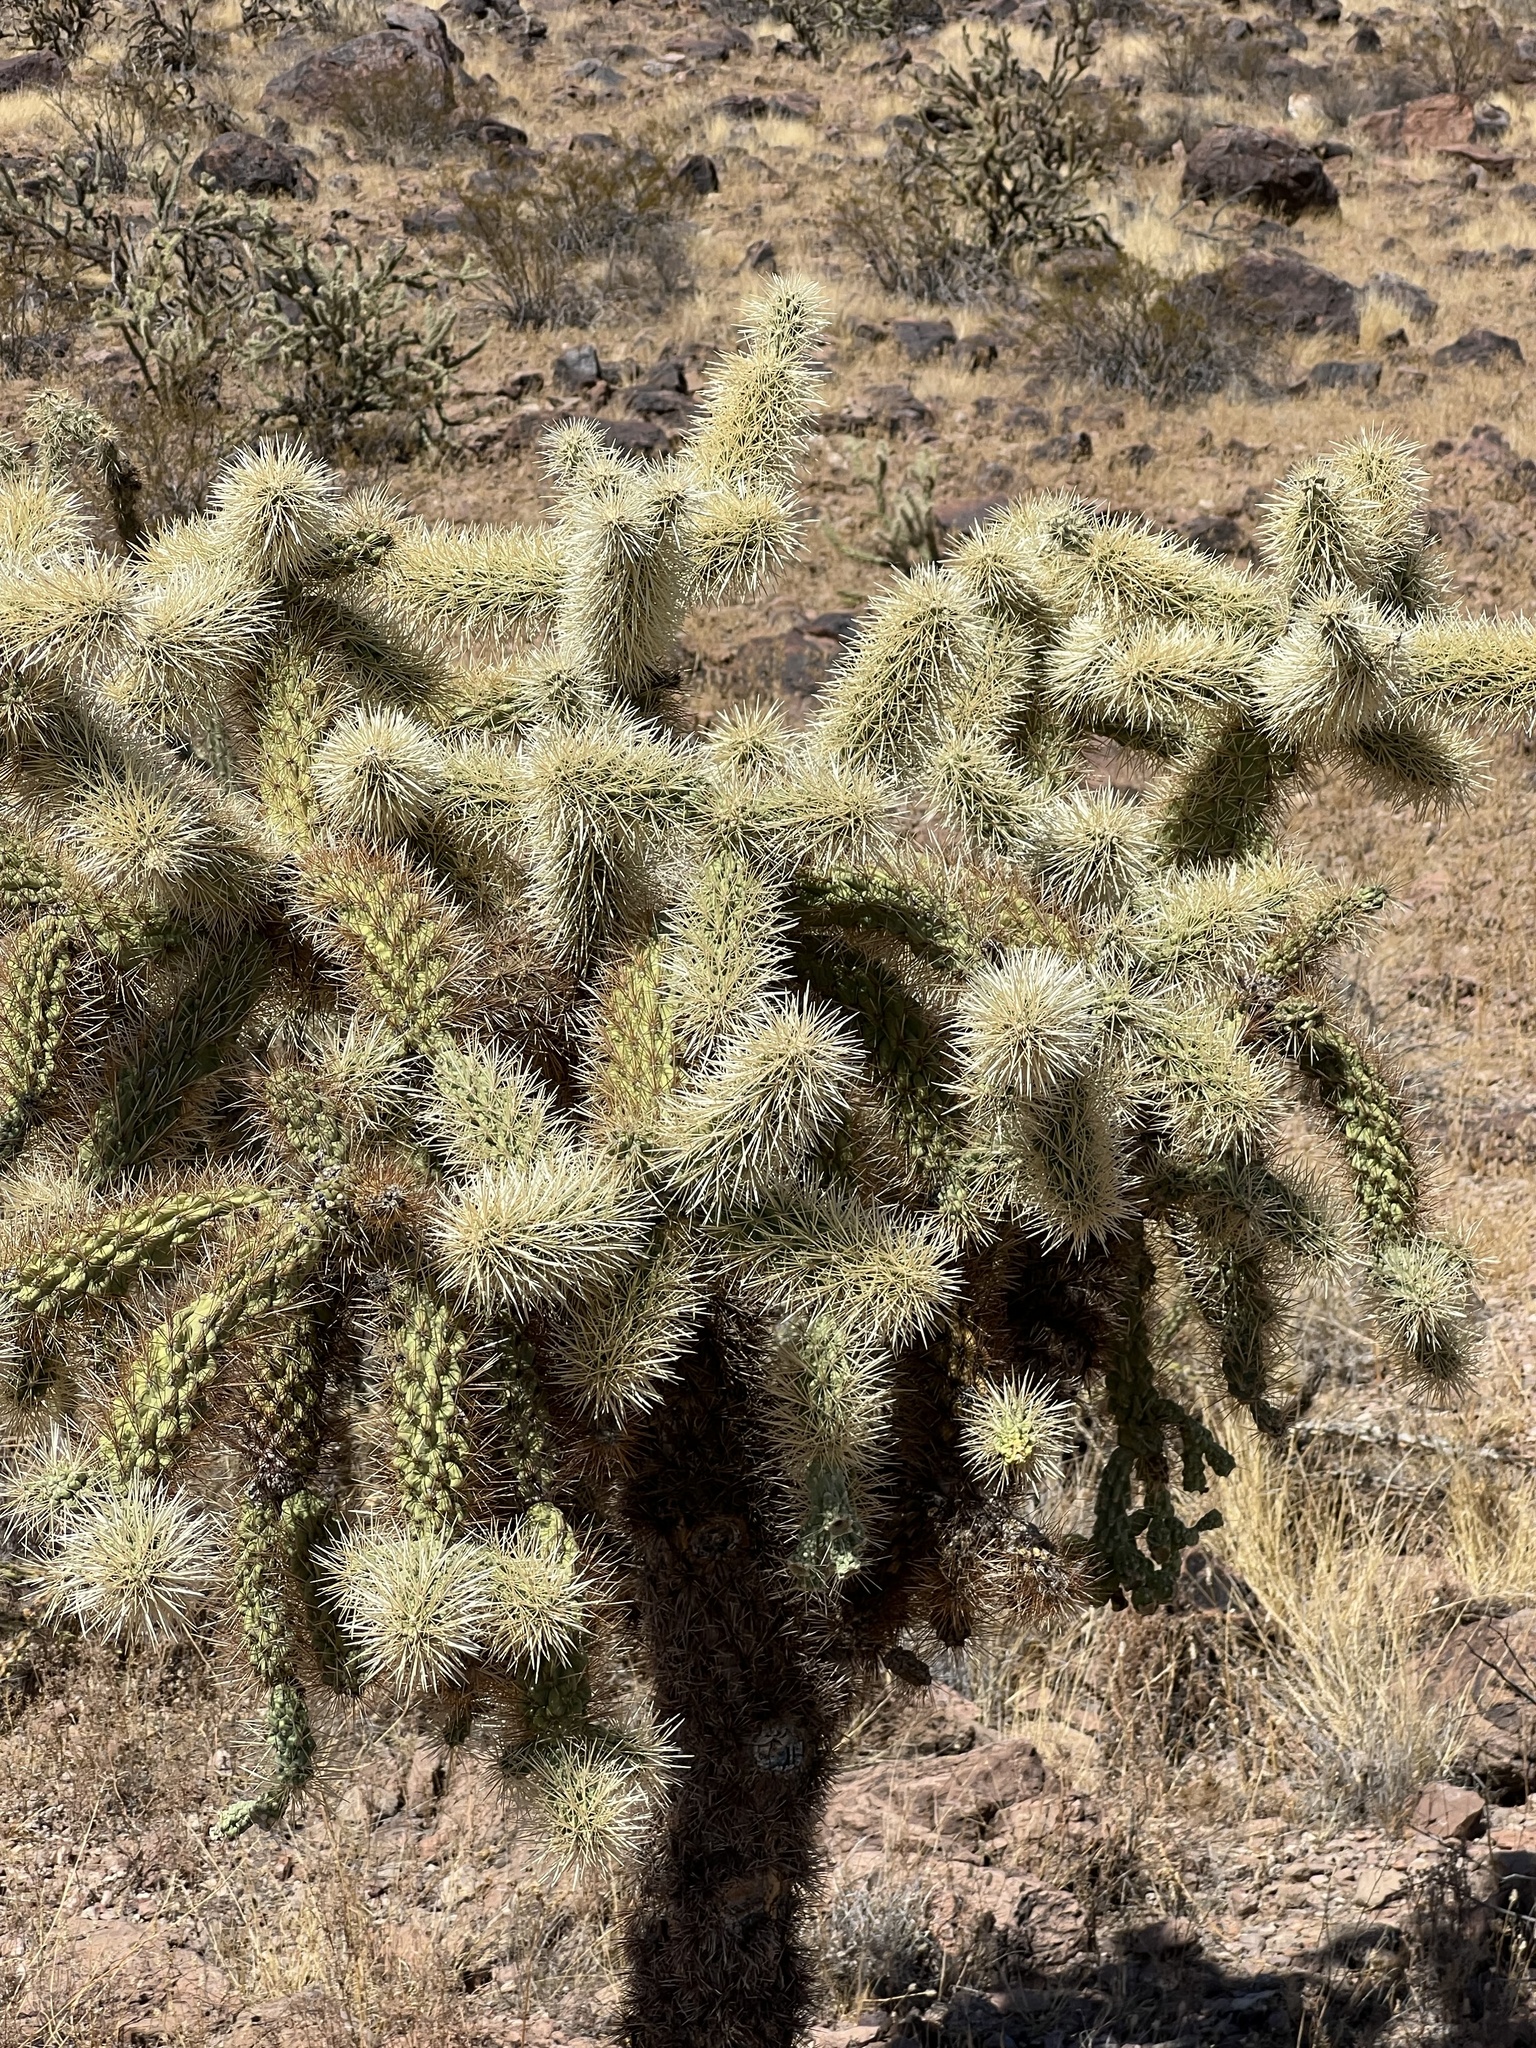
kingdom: Plantae
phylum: Tracheophyta
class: Magnoliopsida
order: Caryophyllales
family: Cactaceae
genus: Cylindropuntia
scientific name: Cylindropuntia fosbergii
